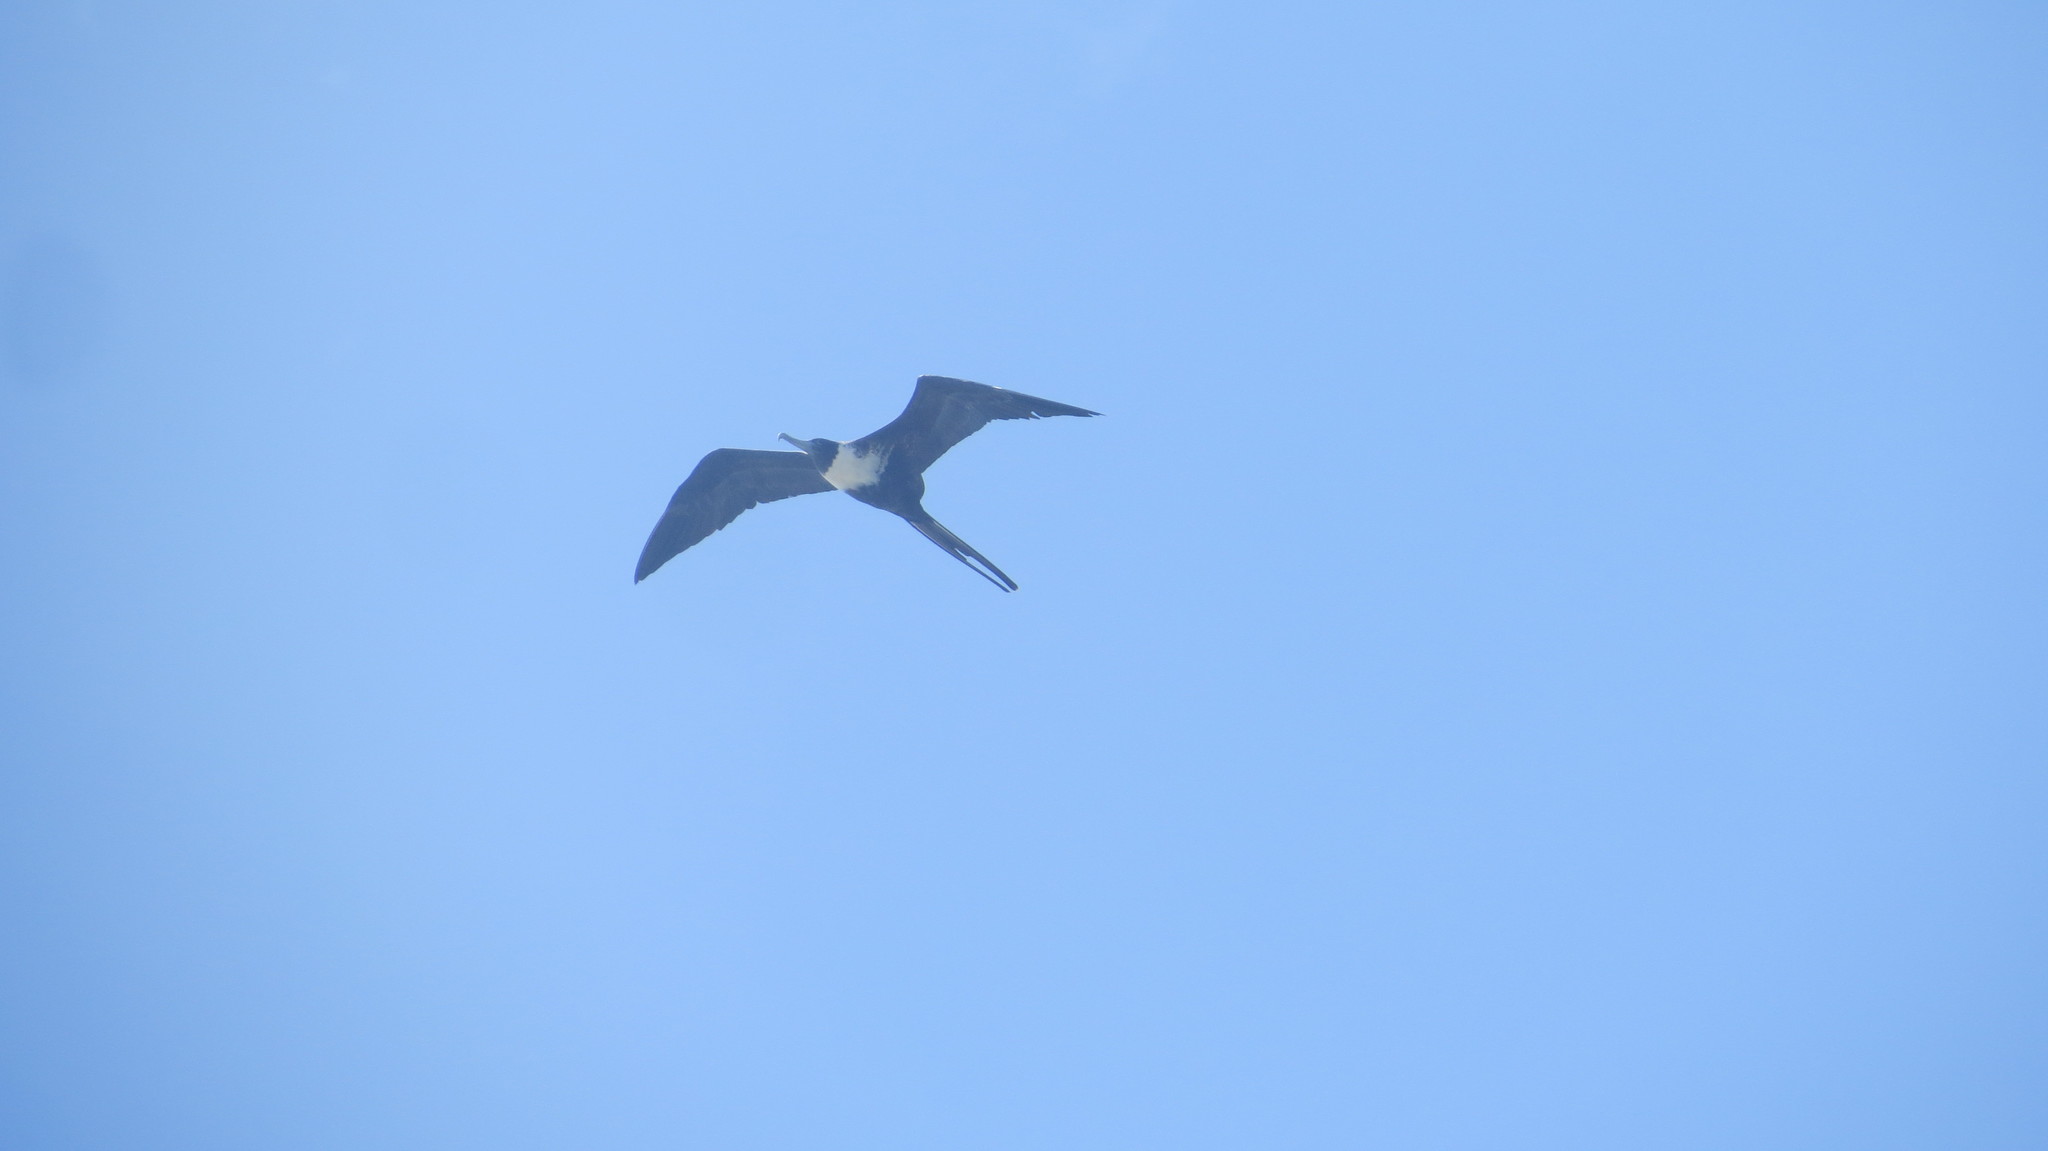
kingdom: Animalia
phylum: Chordata
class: Aves
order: Suliformes
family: Fregatidae
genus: Fregata
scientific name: Fregata magnificens
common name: Magnificent frigatebird
